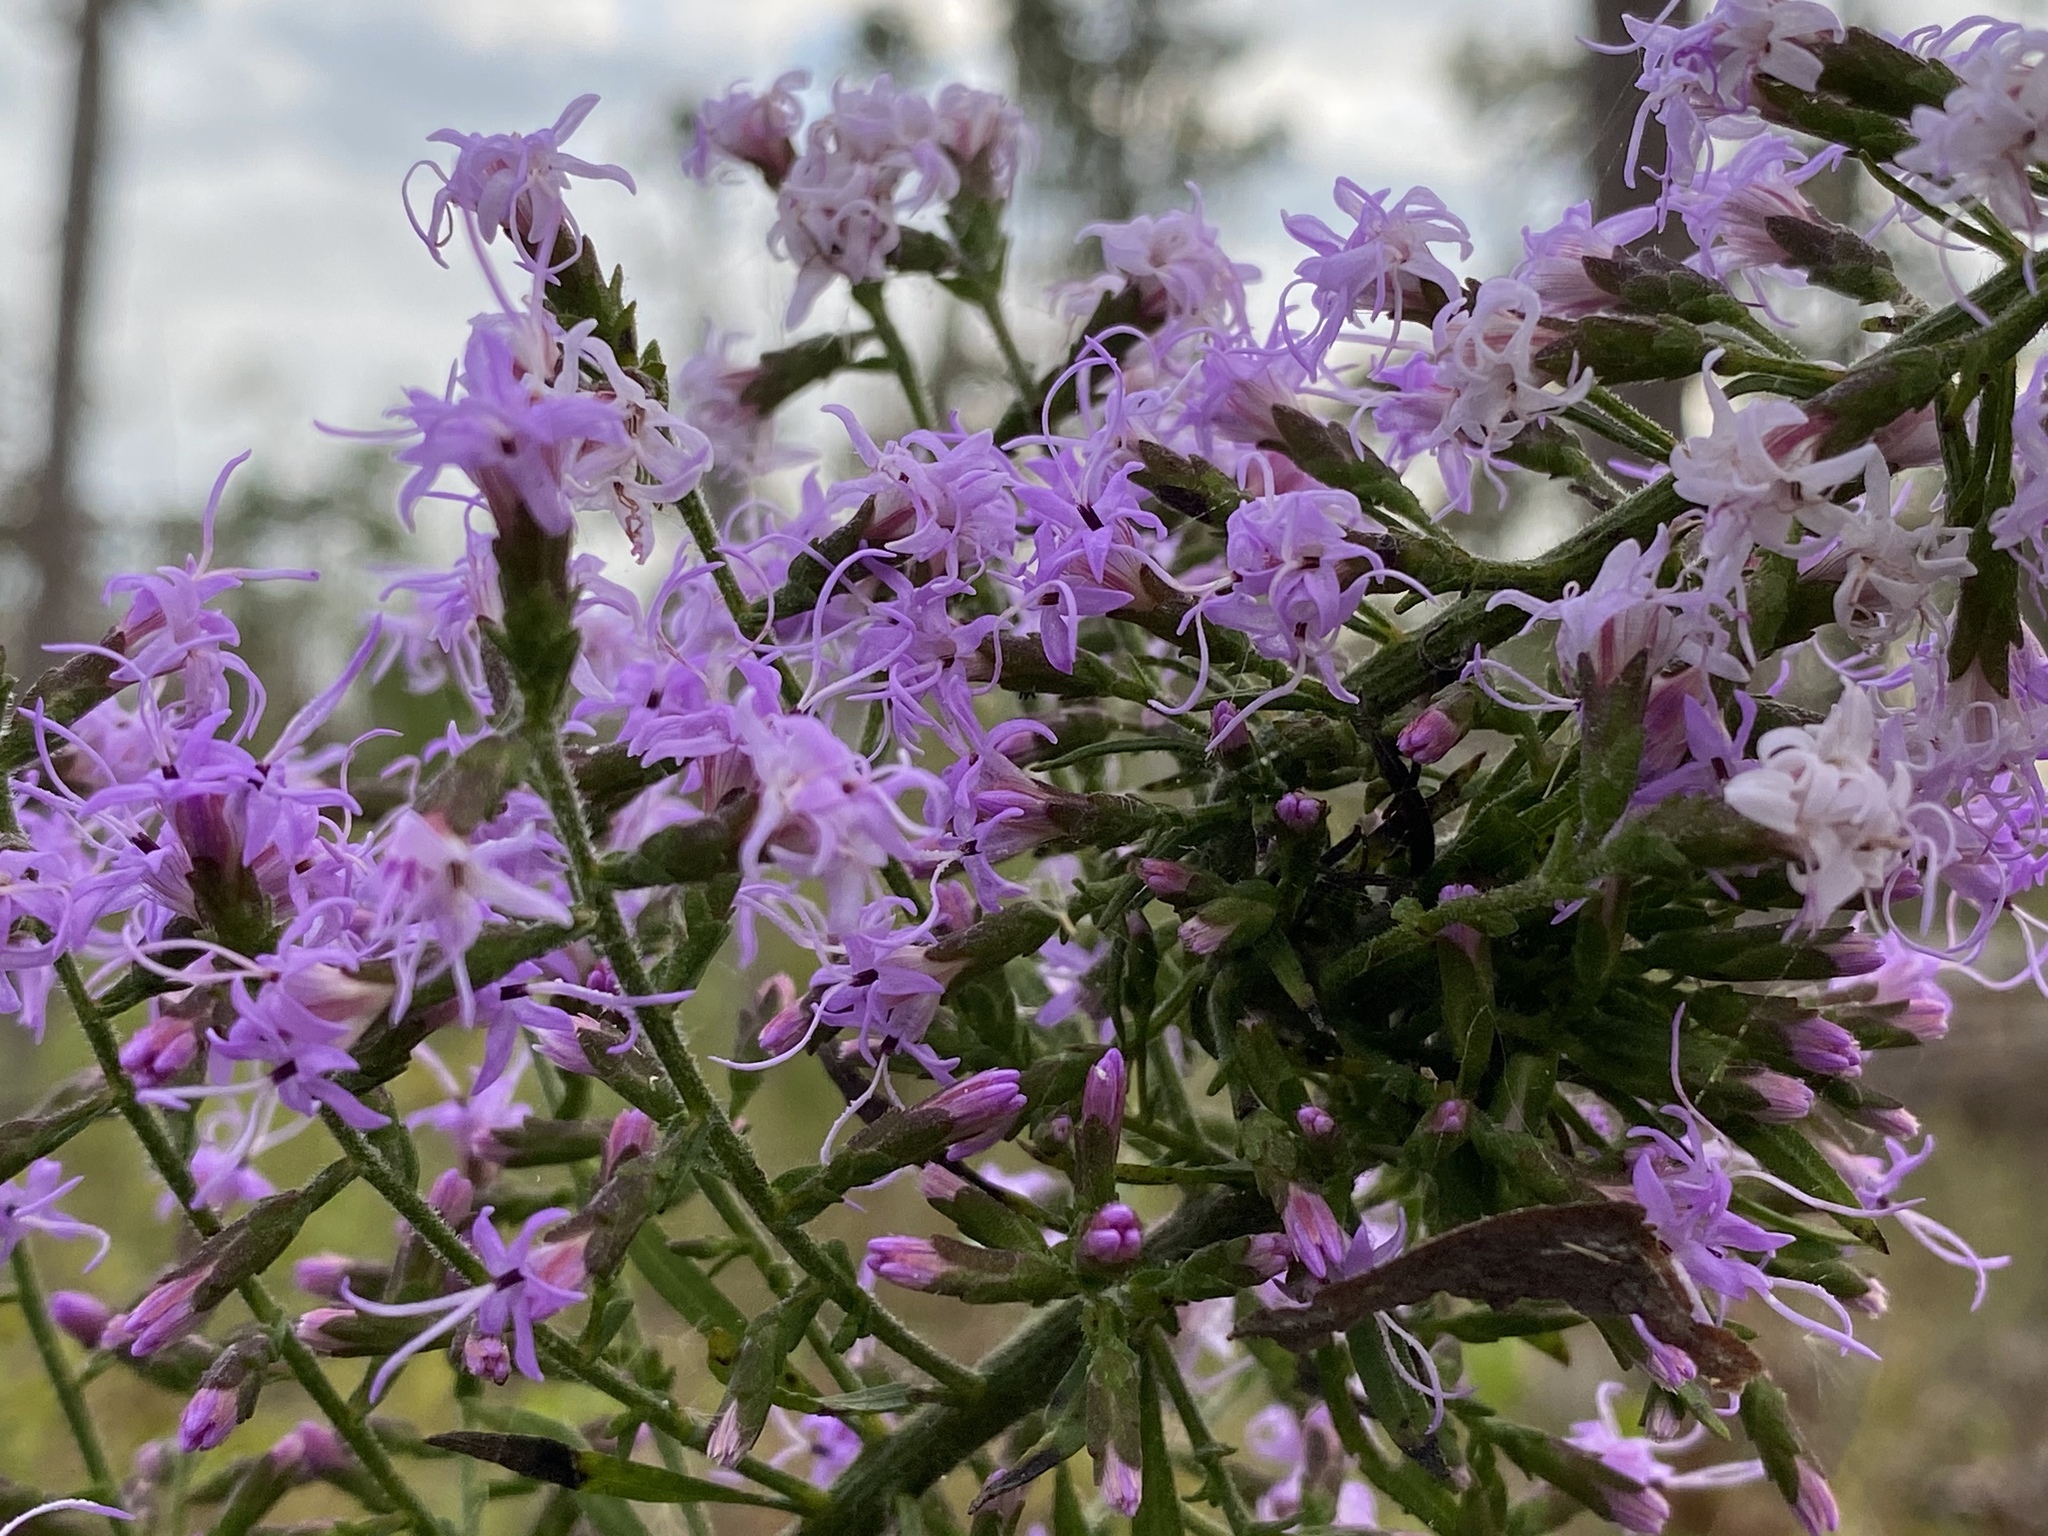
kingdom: Plantae
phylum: Tracheophyta
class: Magnoliopsida
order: Asterales
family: Asteraceae
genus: Liatris
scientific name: Liatris gracilis
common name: Slender gayfeather
